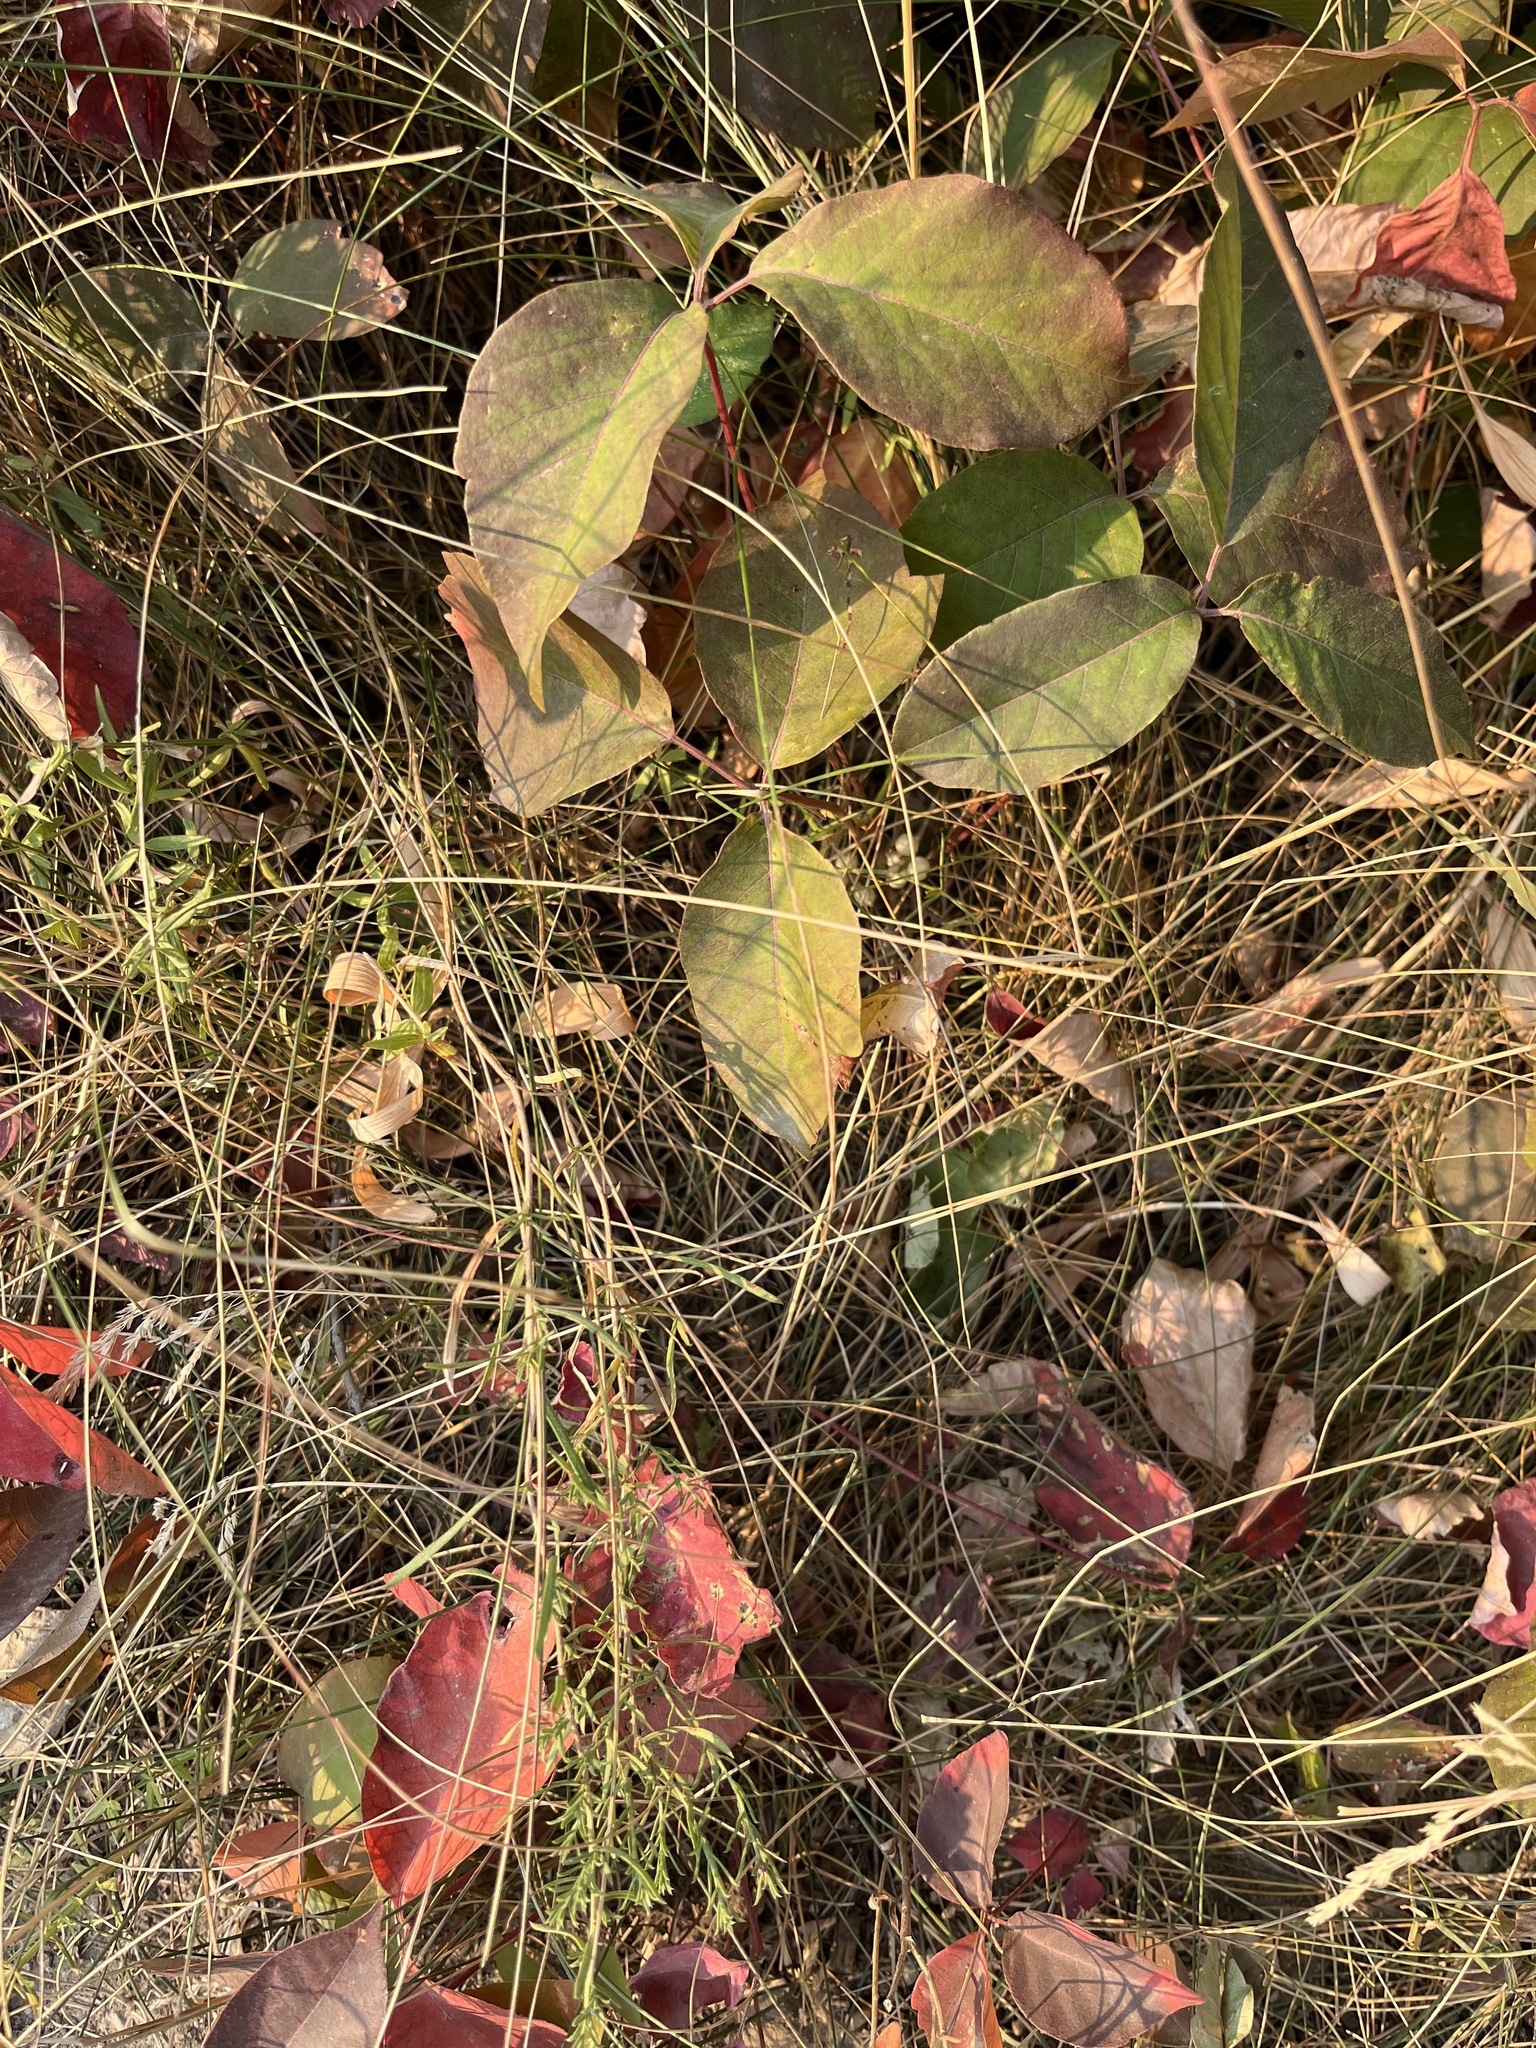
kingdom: Plantae
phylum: Tracheophyta
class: Magnoliopsida
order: Sapindales
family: Anacardiaceae
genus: Toxicodendron
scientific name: Toxicodendron rydbergii
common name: Rydberg's poison-ivy
